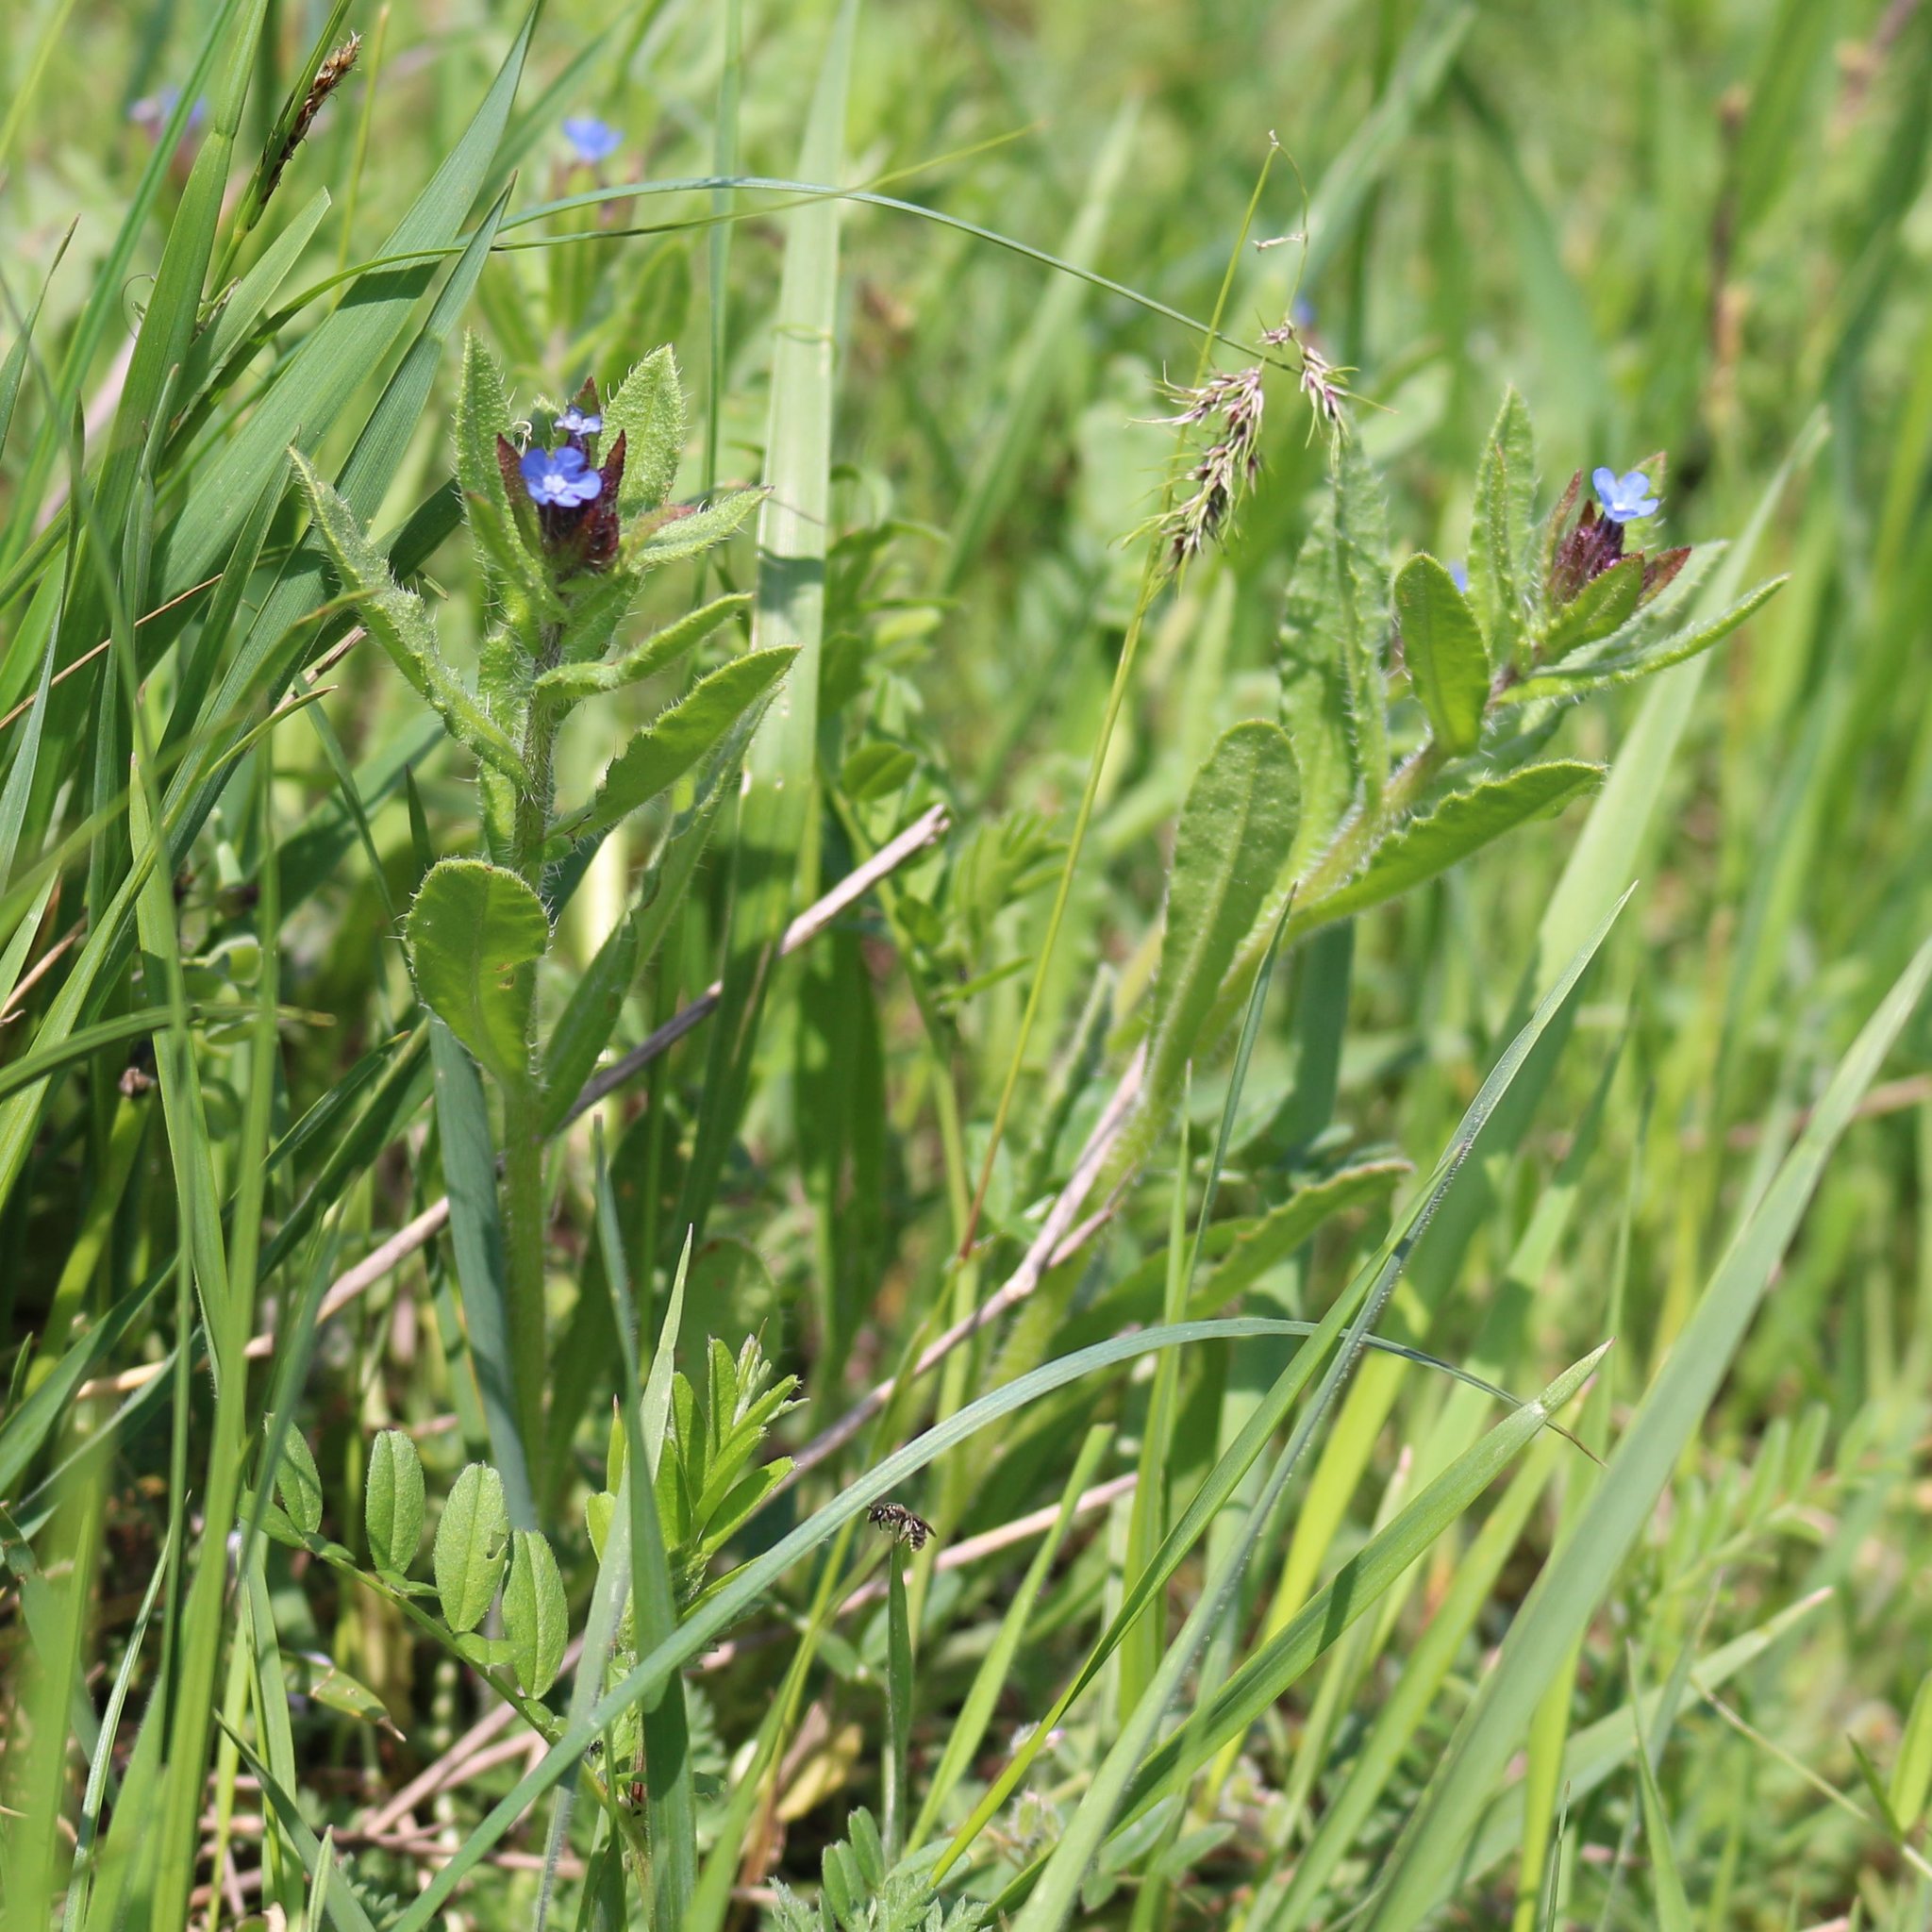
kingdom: Plantae
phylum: Tracheophyta
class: Magnoliopsida
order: Boraginales
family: Boraginaceae
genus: Lycopsis
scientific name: Lycopsis arvensis
